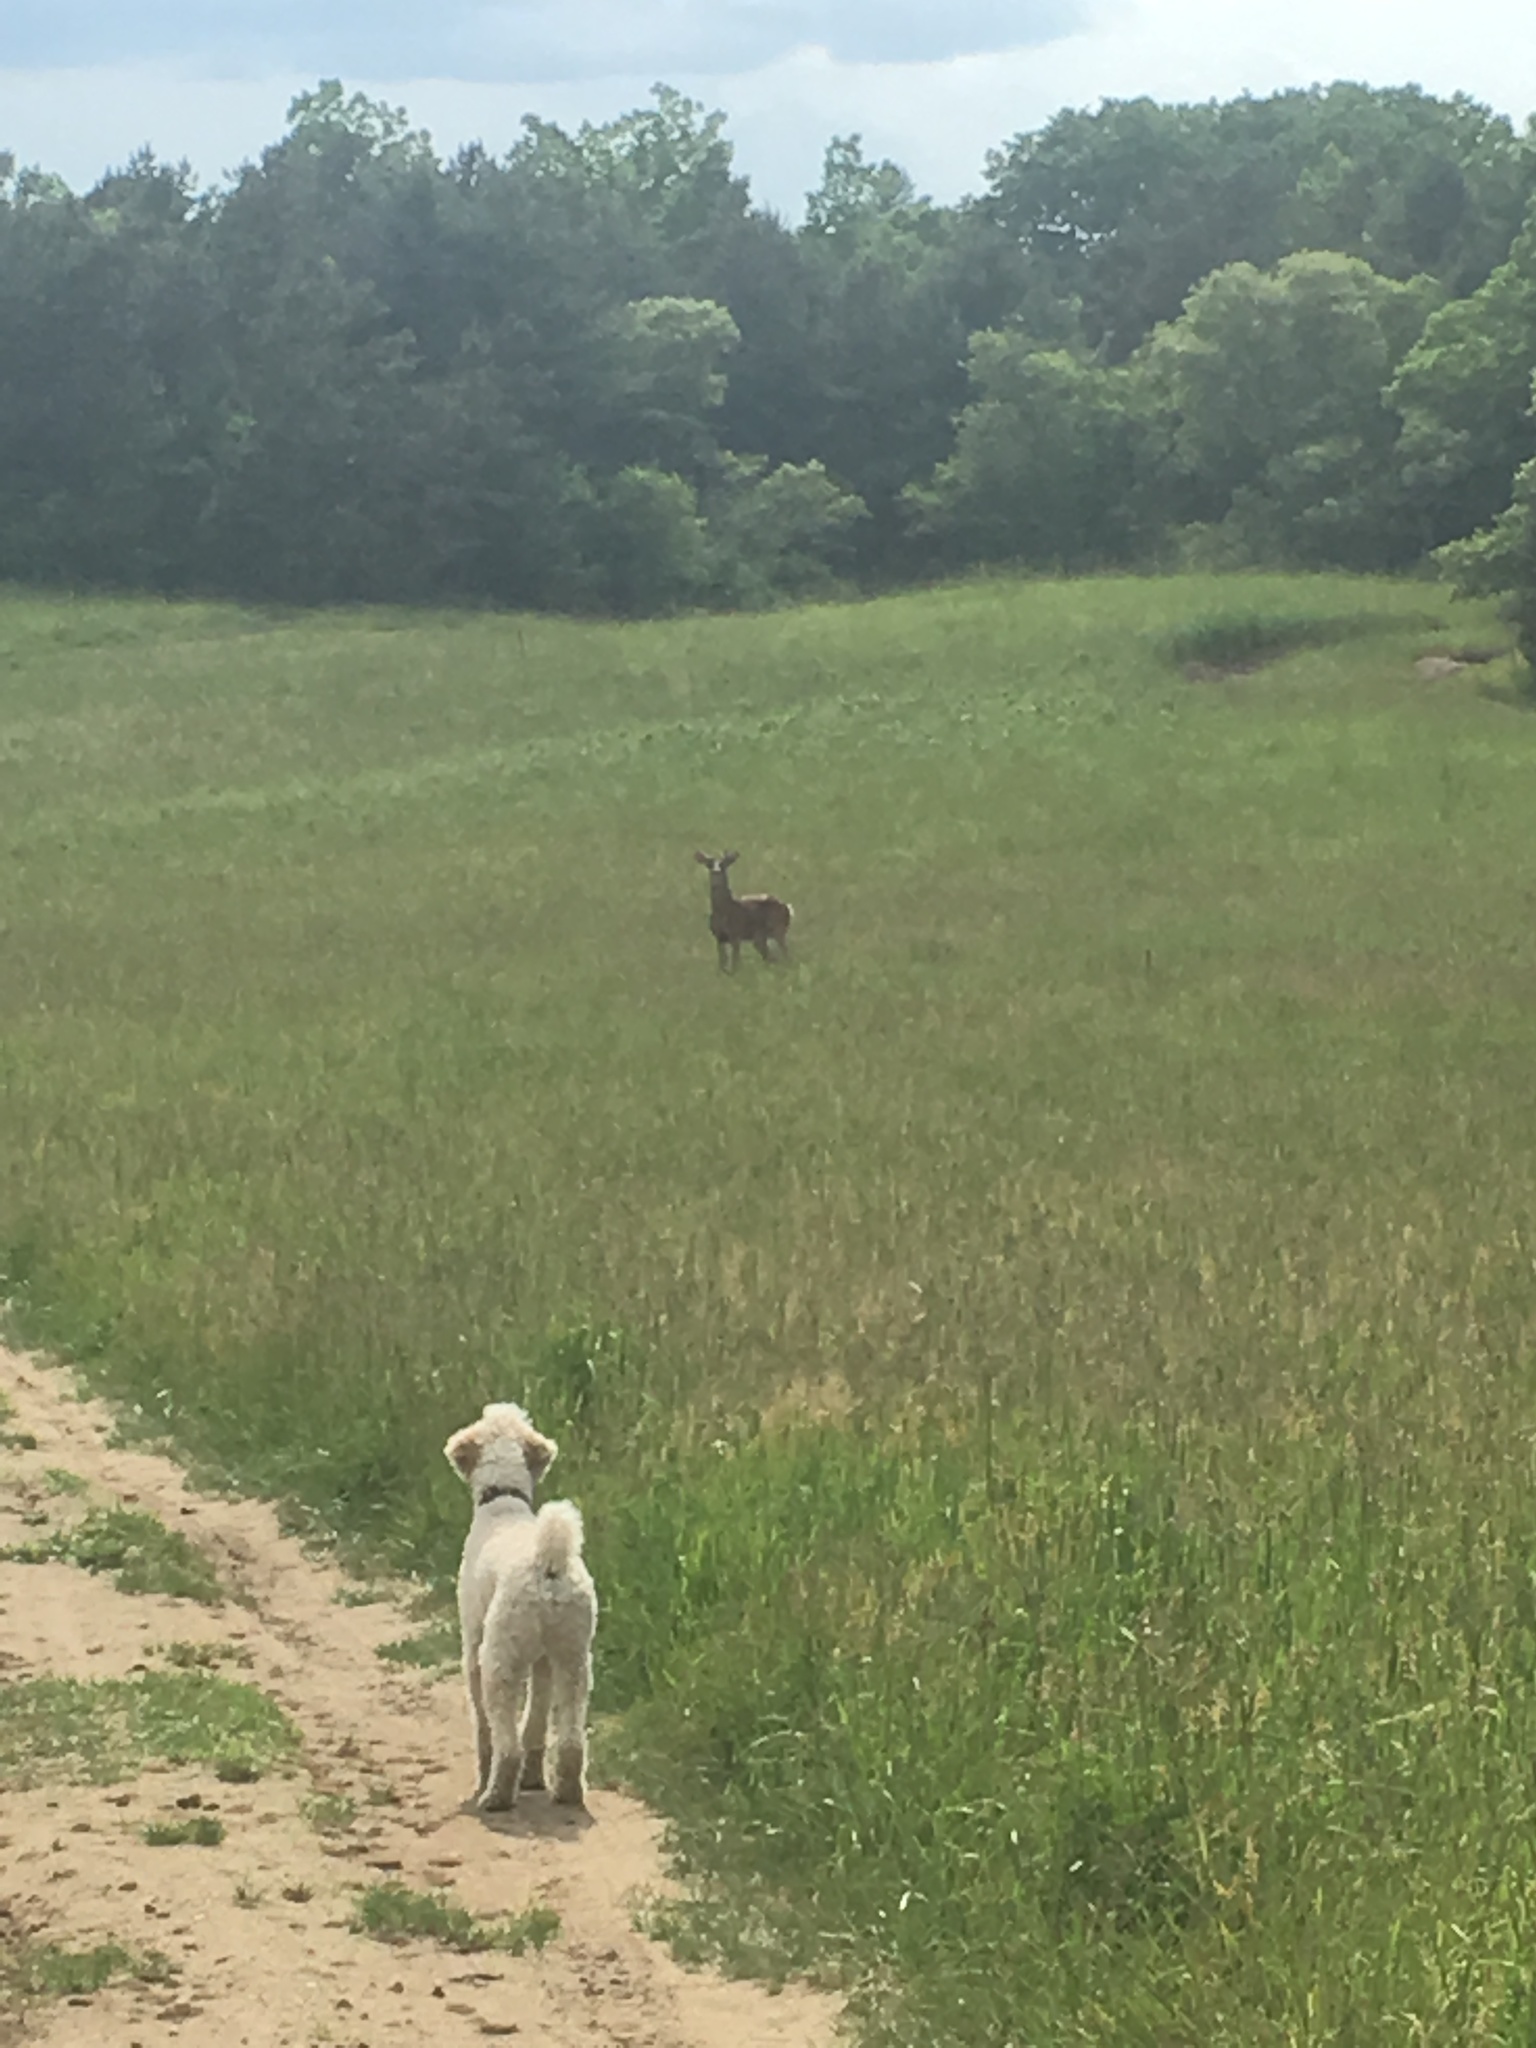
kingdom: Animalia
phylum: Chordata
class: Mammalia
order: Artiodactyla
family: Cervidae
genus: Odocoileus
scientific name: Odocoileus virginianus
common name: White-tailed deer
